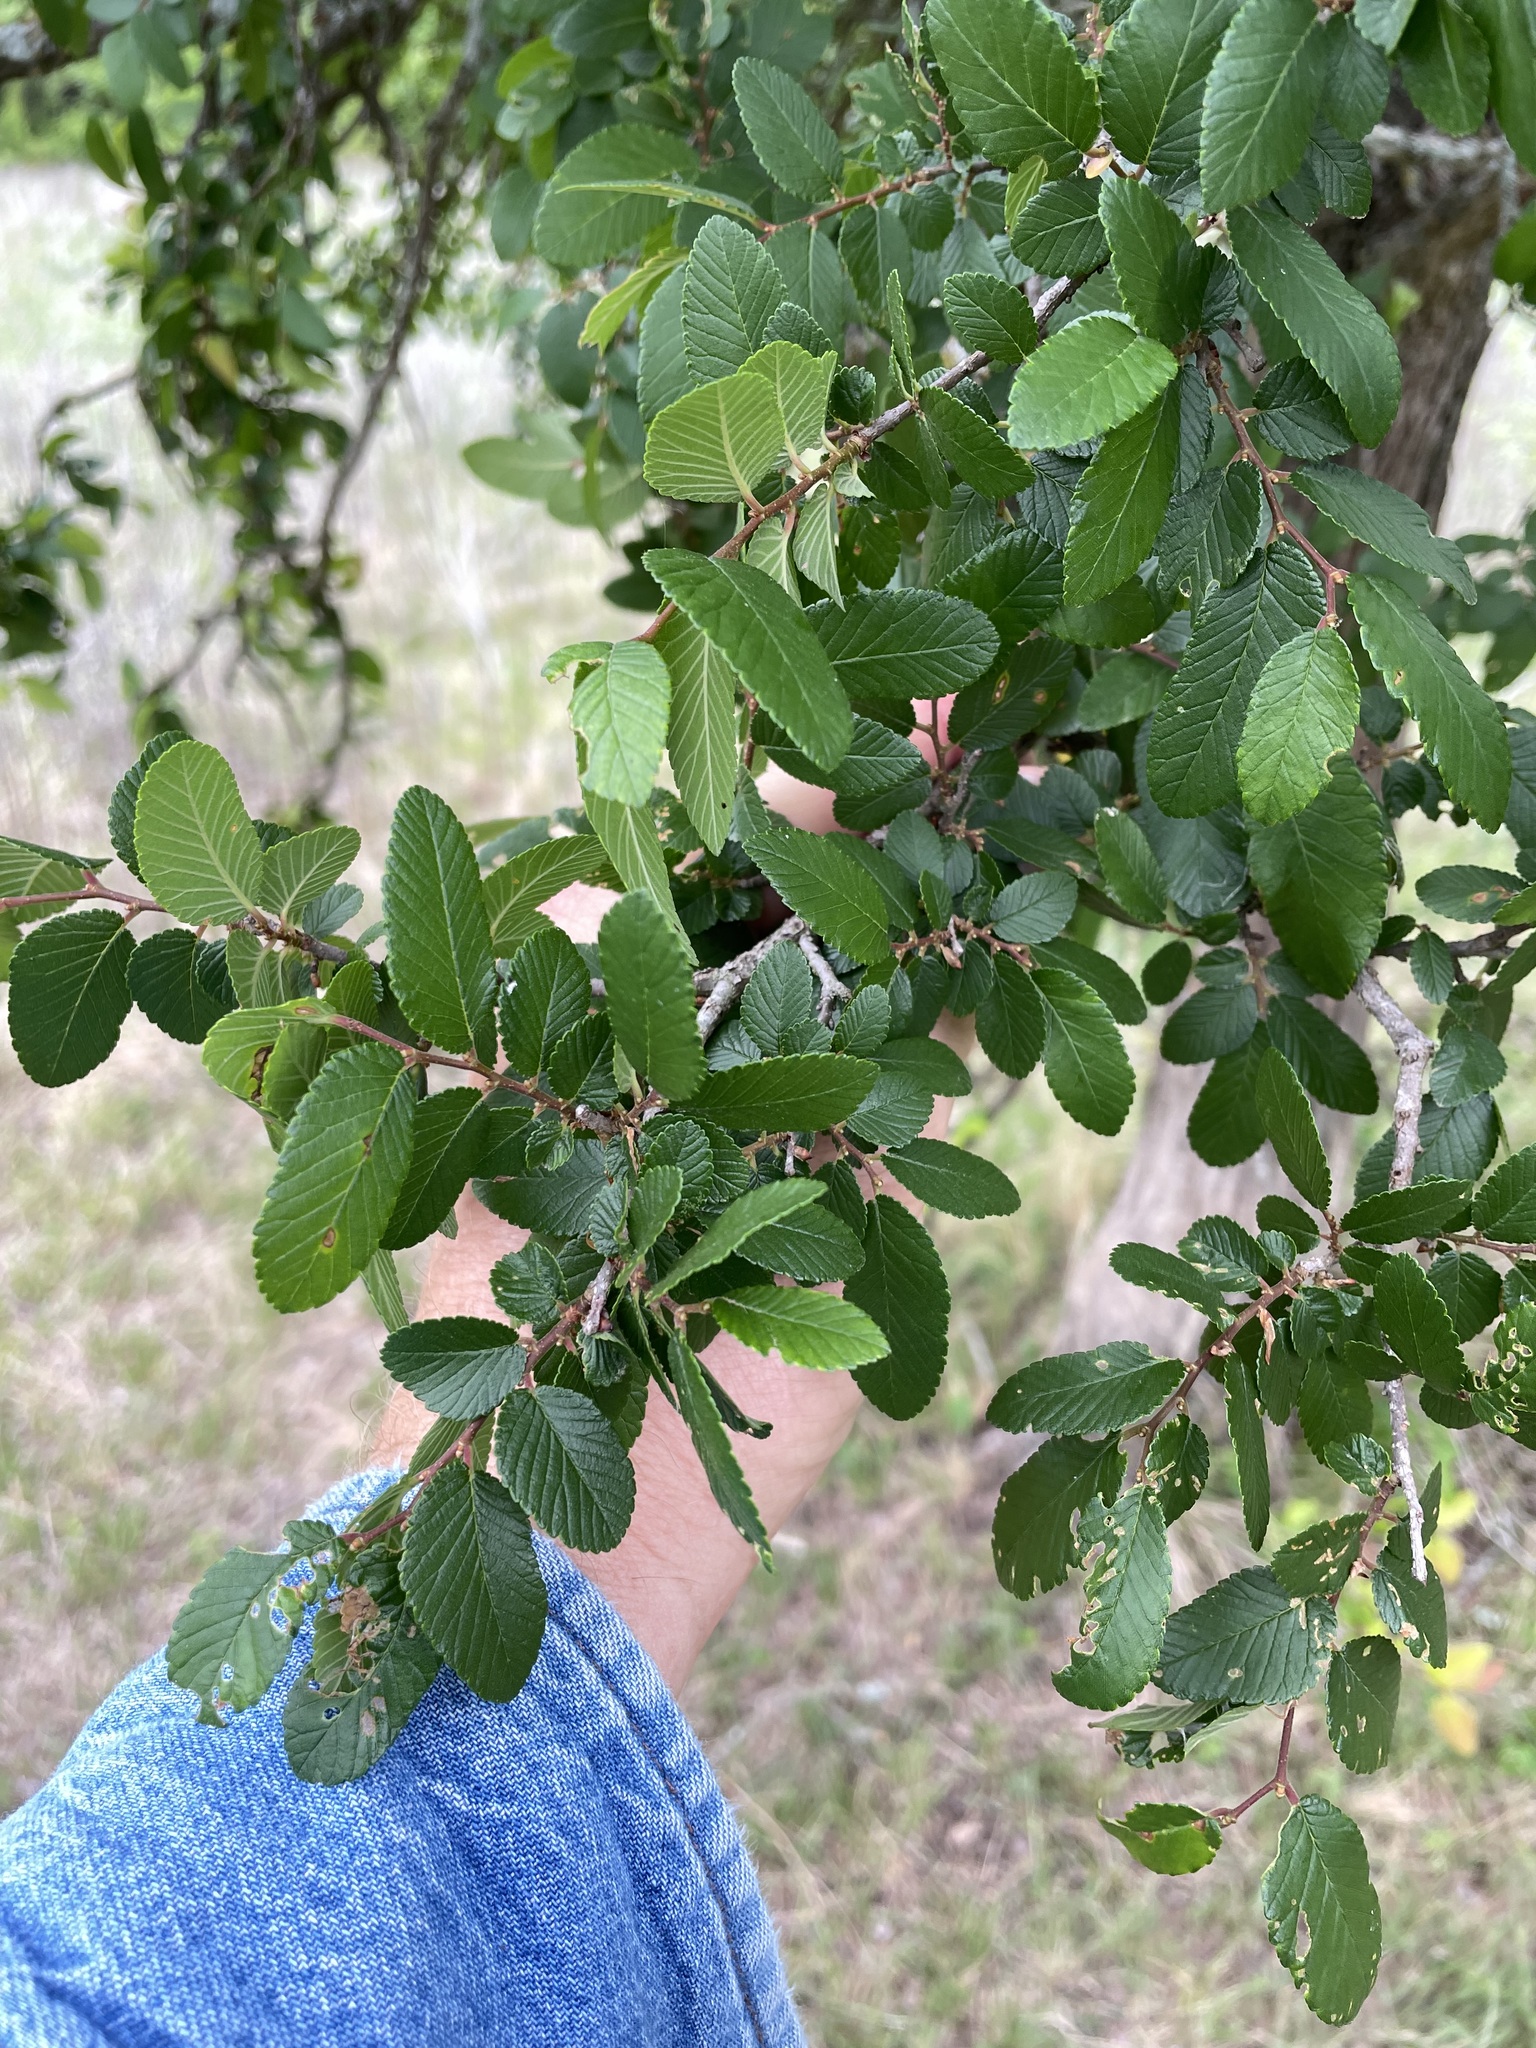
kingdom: Plantae
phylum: Tracheophyta
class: Magnoliopsida
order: Rosales
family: Ulmaceae
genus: Ulmus
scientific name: Ulmus crassifolia
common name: Basket elm
